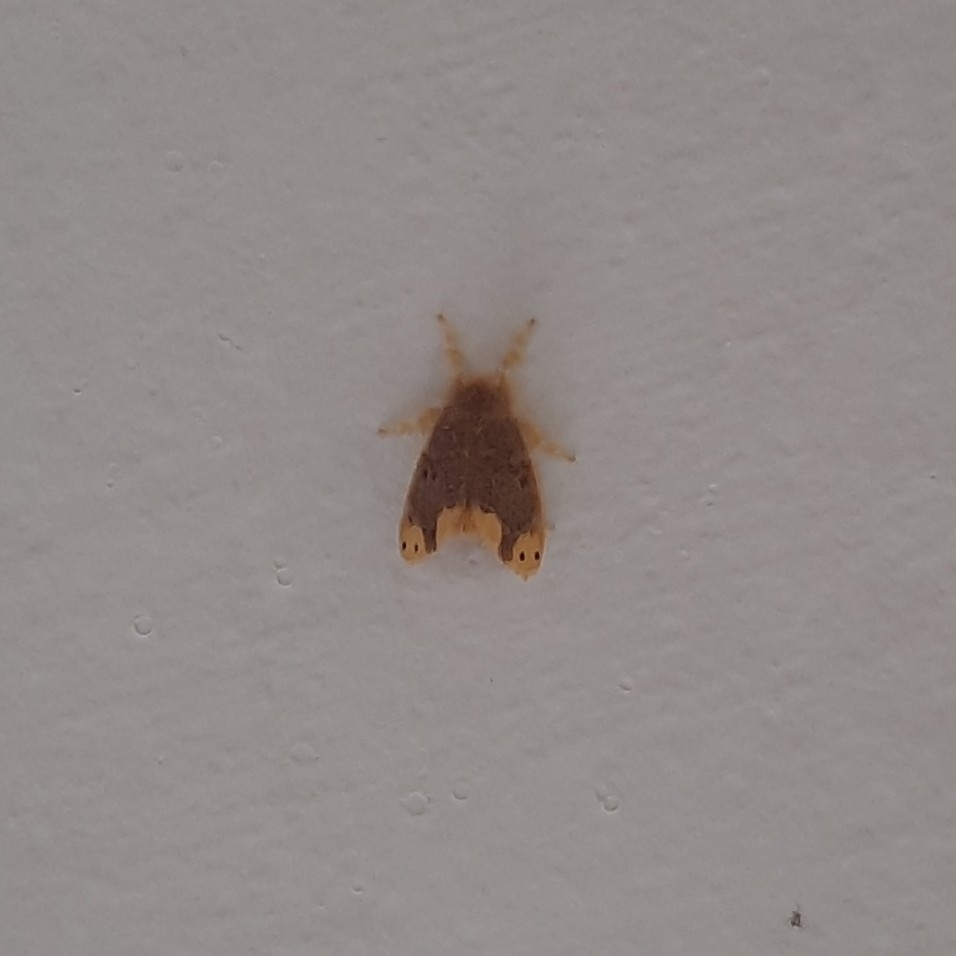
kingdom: Animalia
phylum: Arthropoda
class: Insecta
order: Lepidoptera
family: Erebidae
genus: Arna
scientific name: Arna bipunctapex
